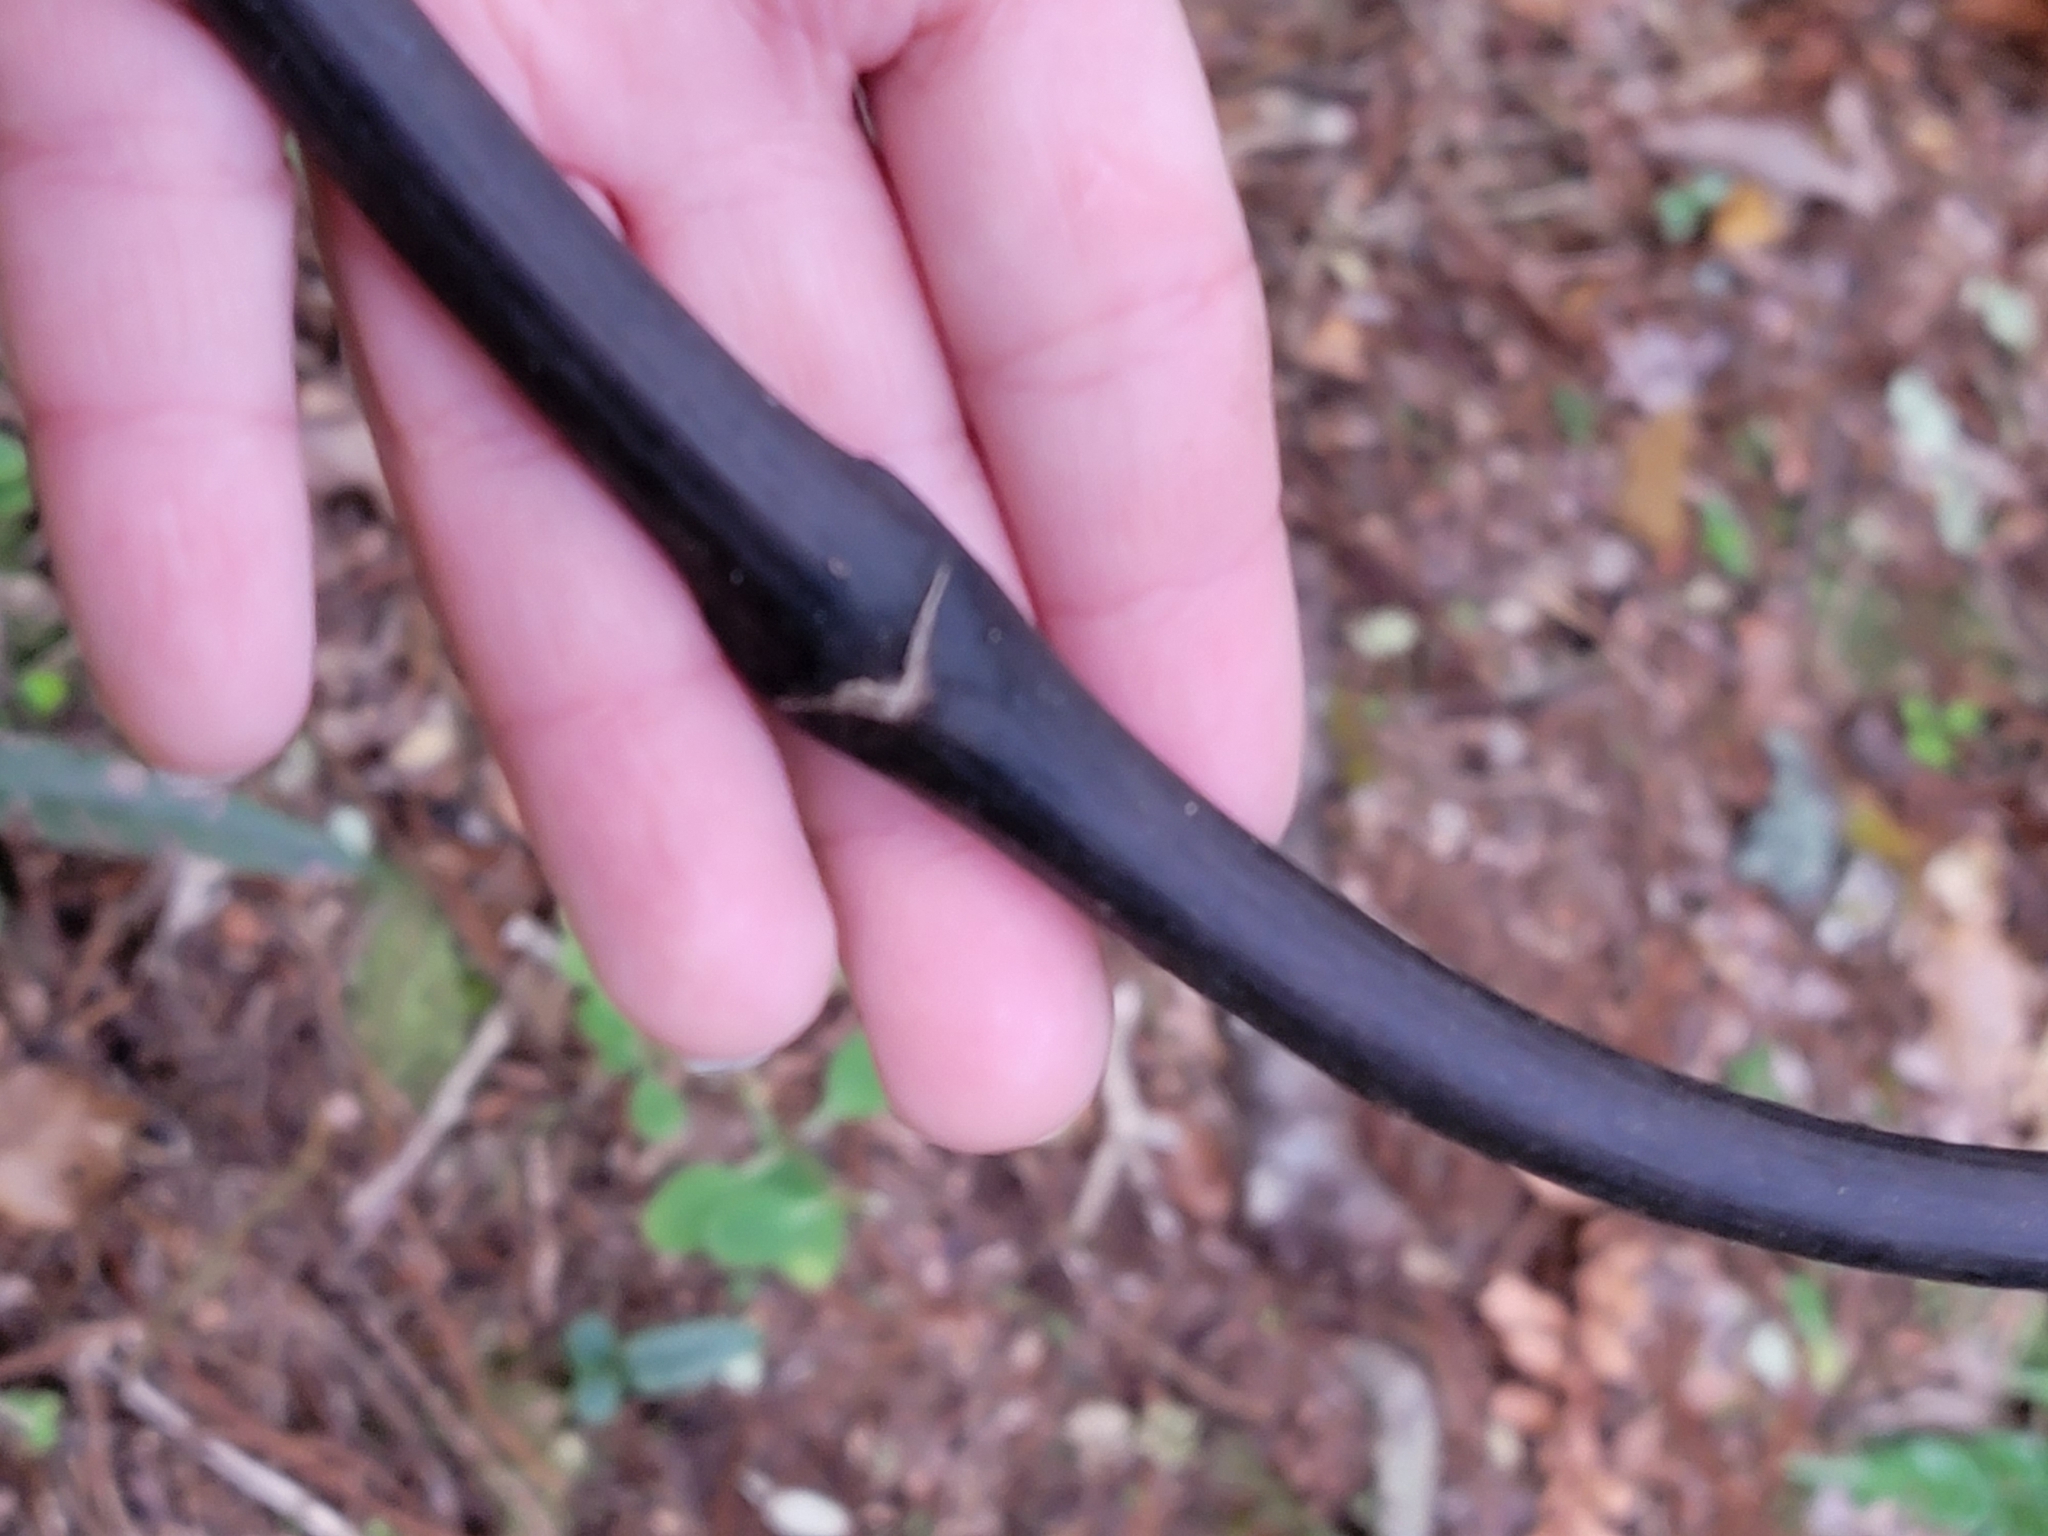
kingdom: Plantae
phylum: Tracheophyta
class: Liliopsida
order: Liliales
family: Ripogonaceae
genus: Ripogonum
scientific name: Ripogonum scandens
